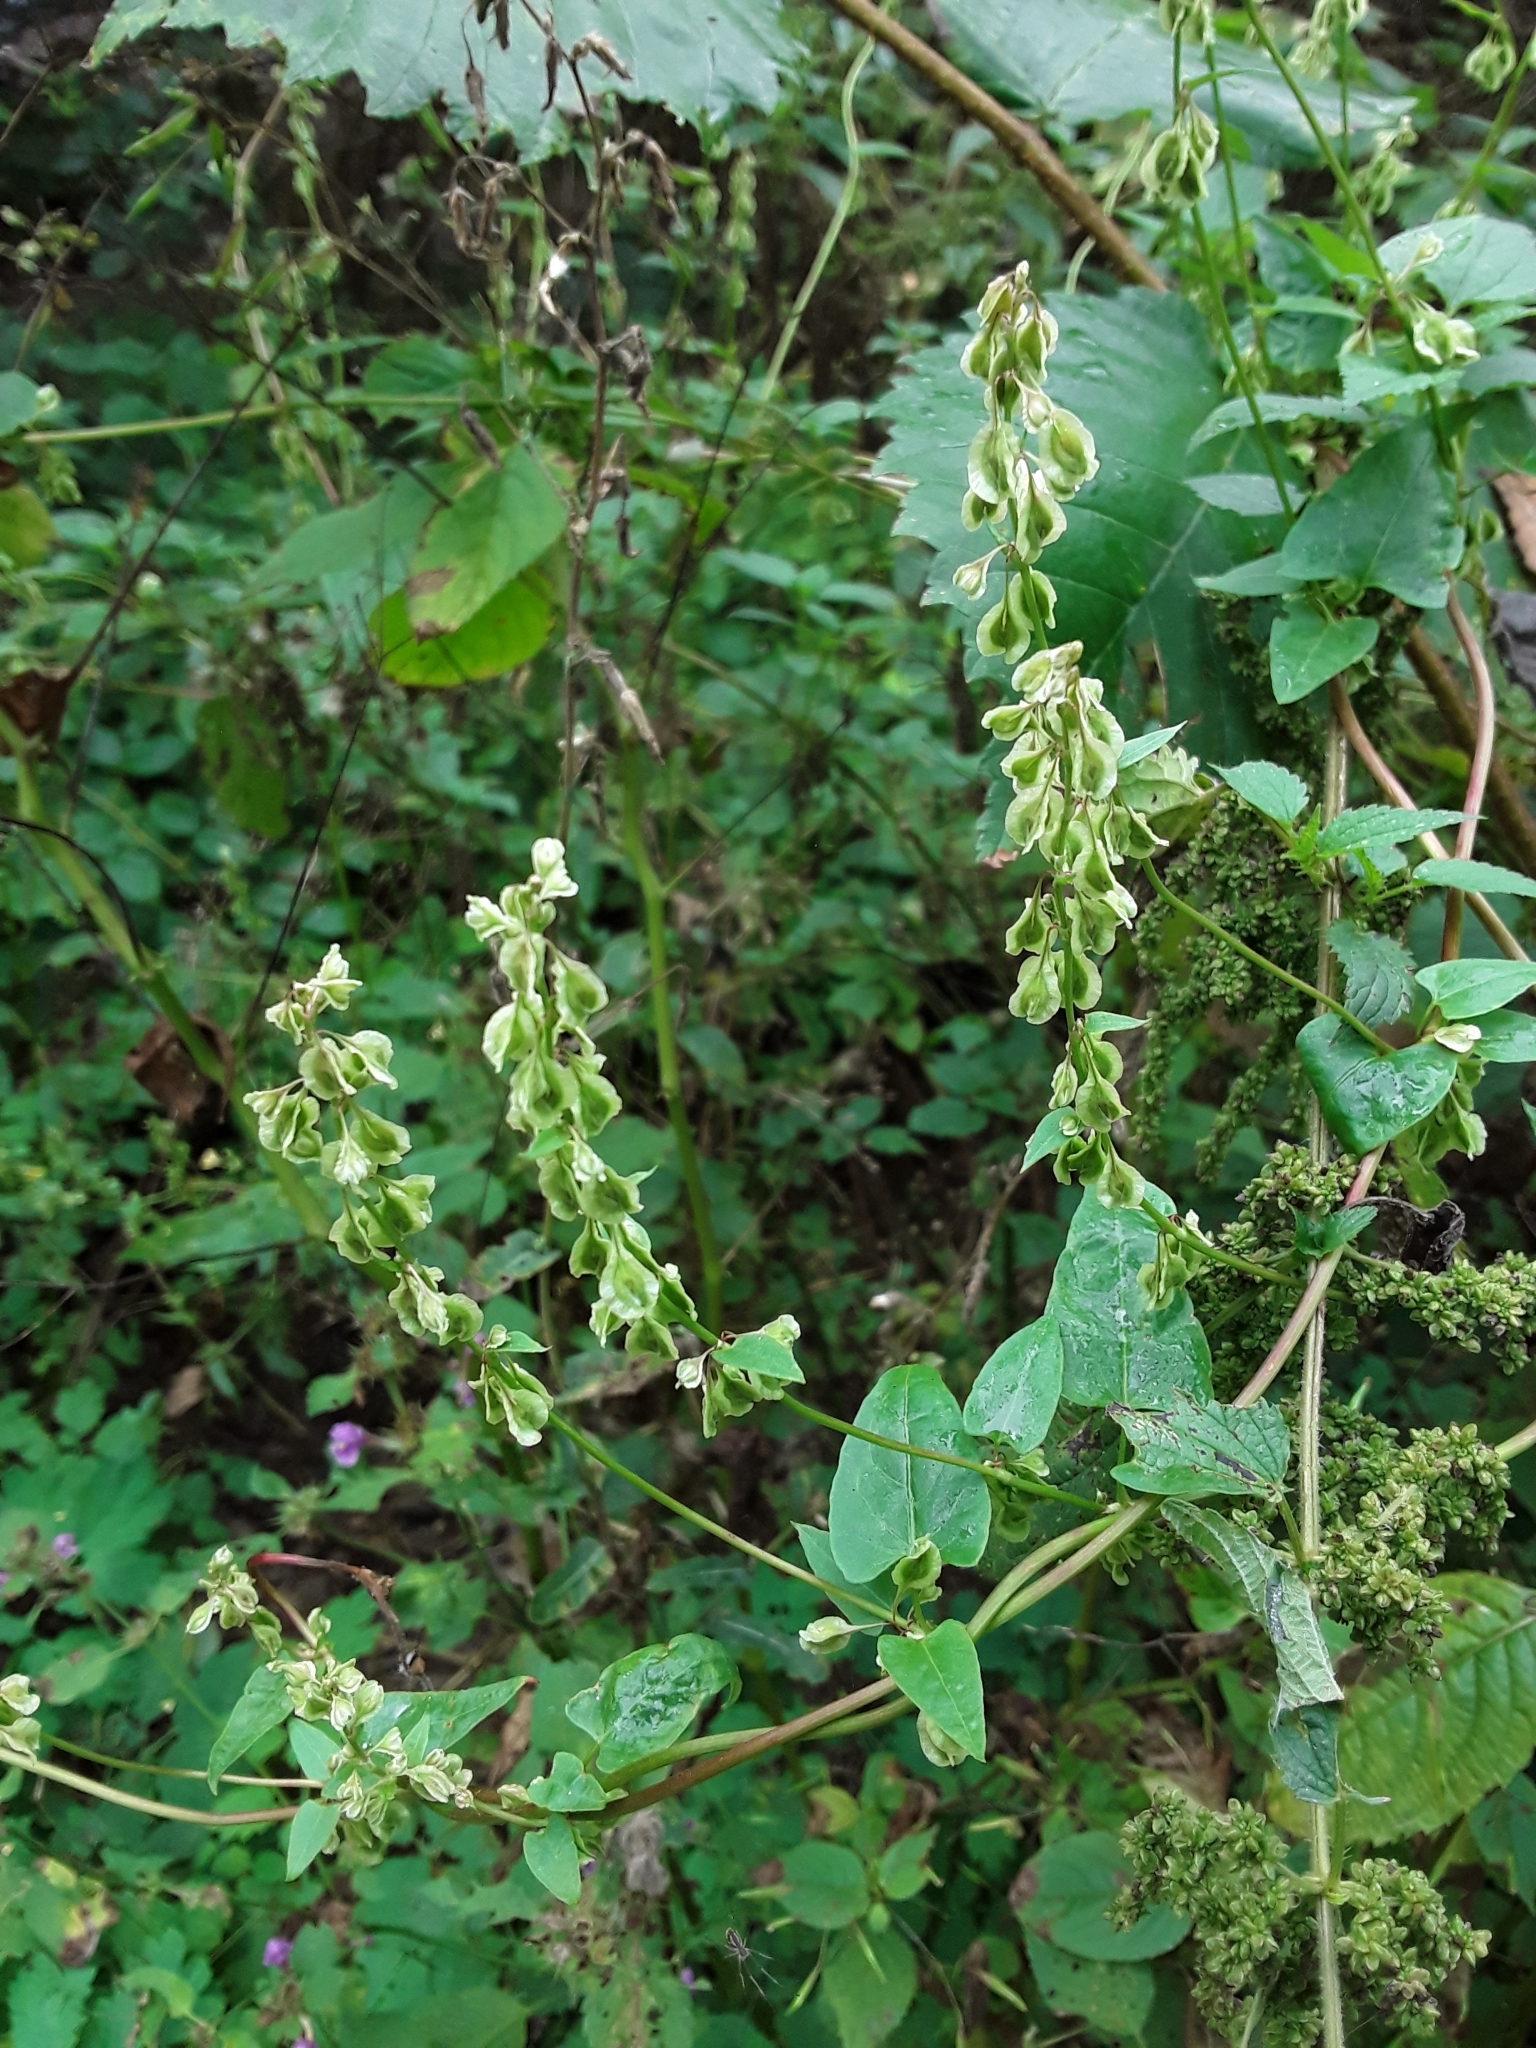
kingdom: Plantae
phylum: Tracheophyta
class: Magnoliopsida
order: Caryophyllales
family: Polygonaceae
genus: Fallopia
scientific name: Fallopia dumetorum
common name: Copse-bindweed
